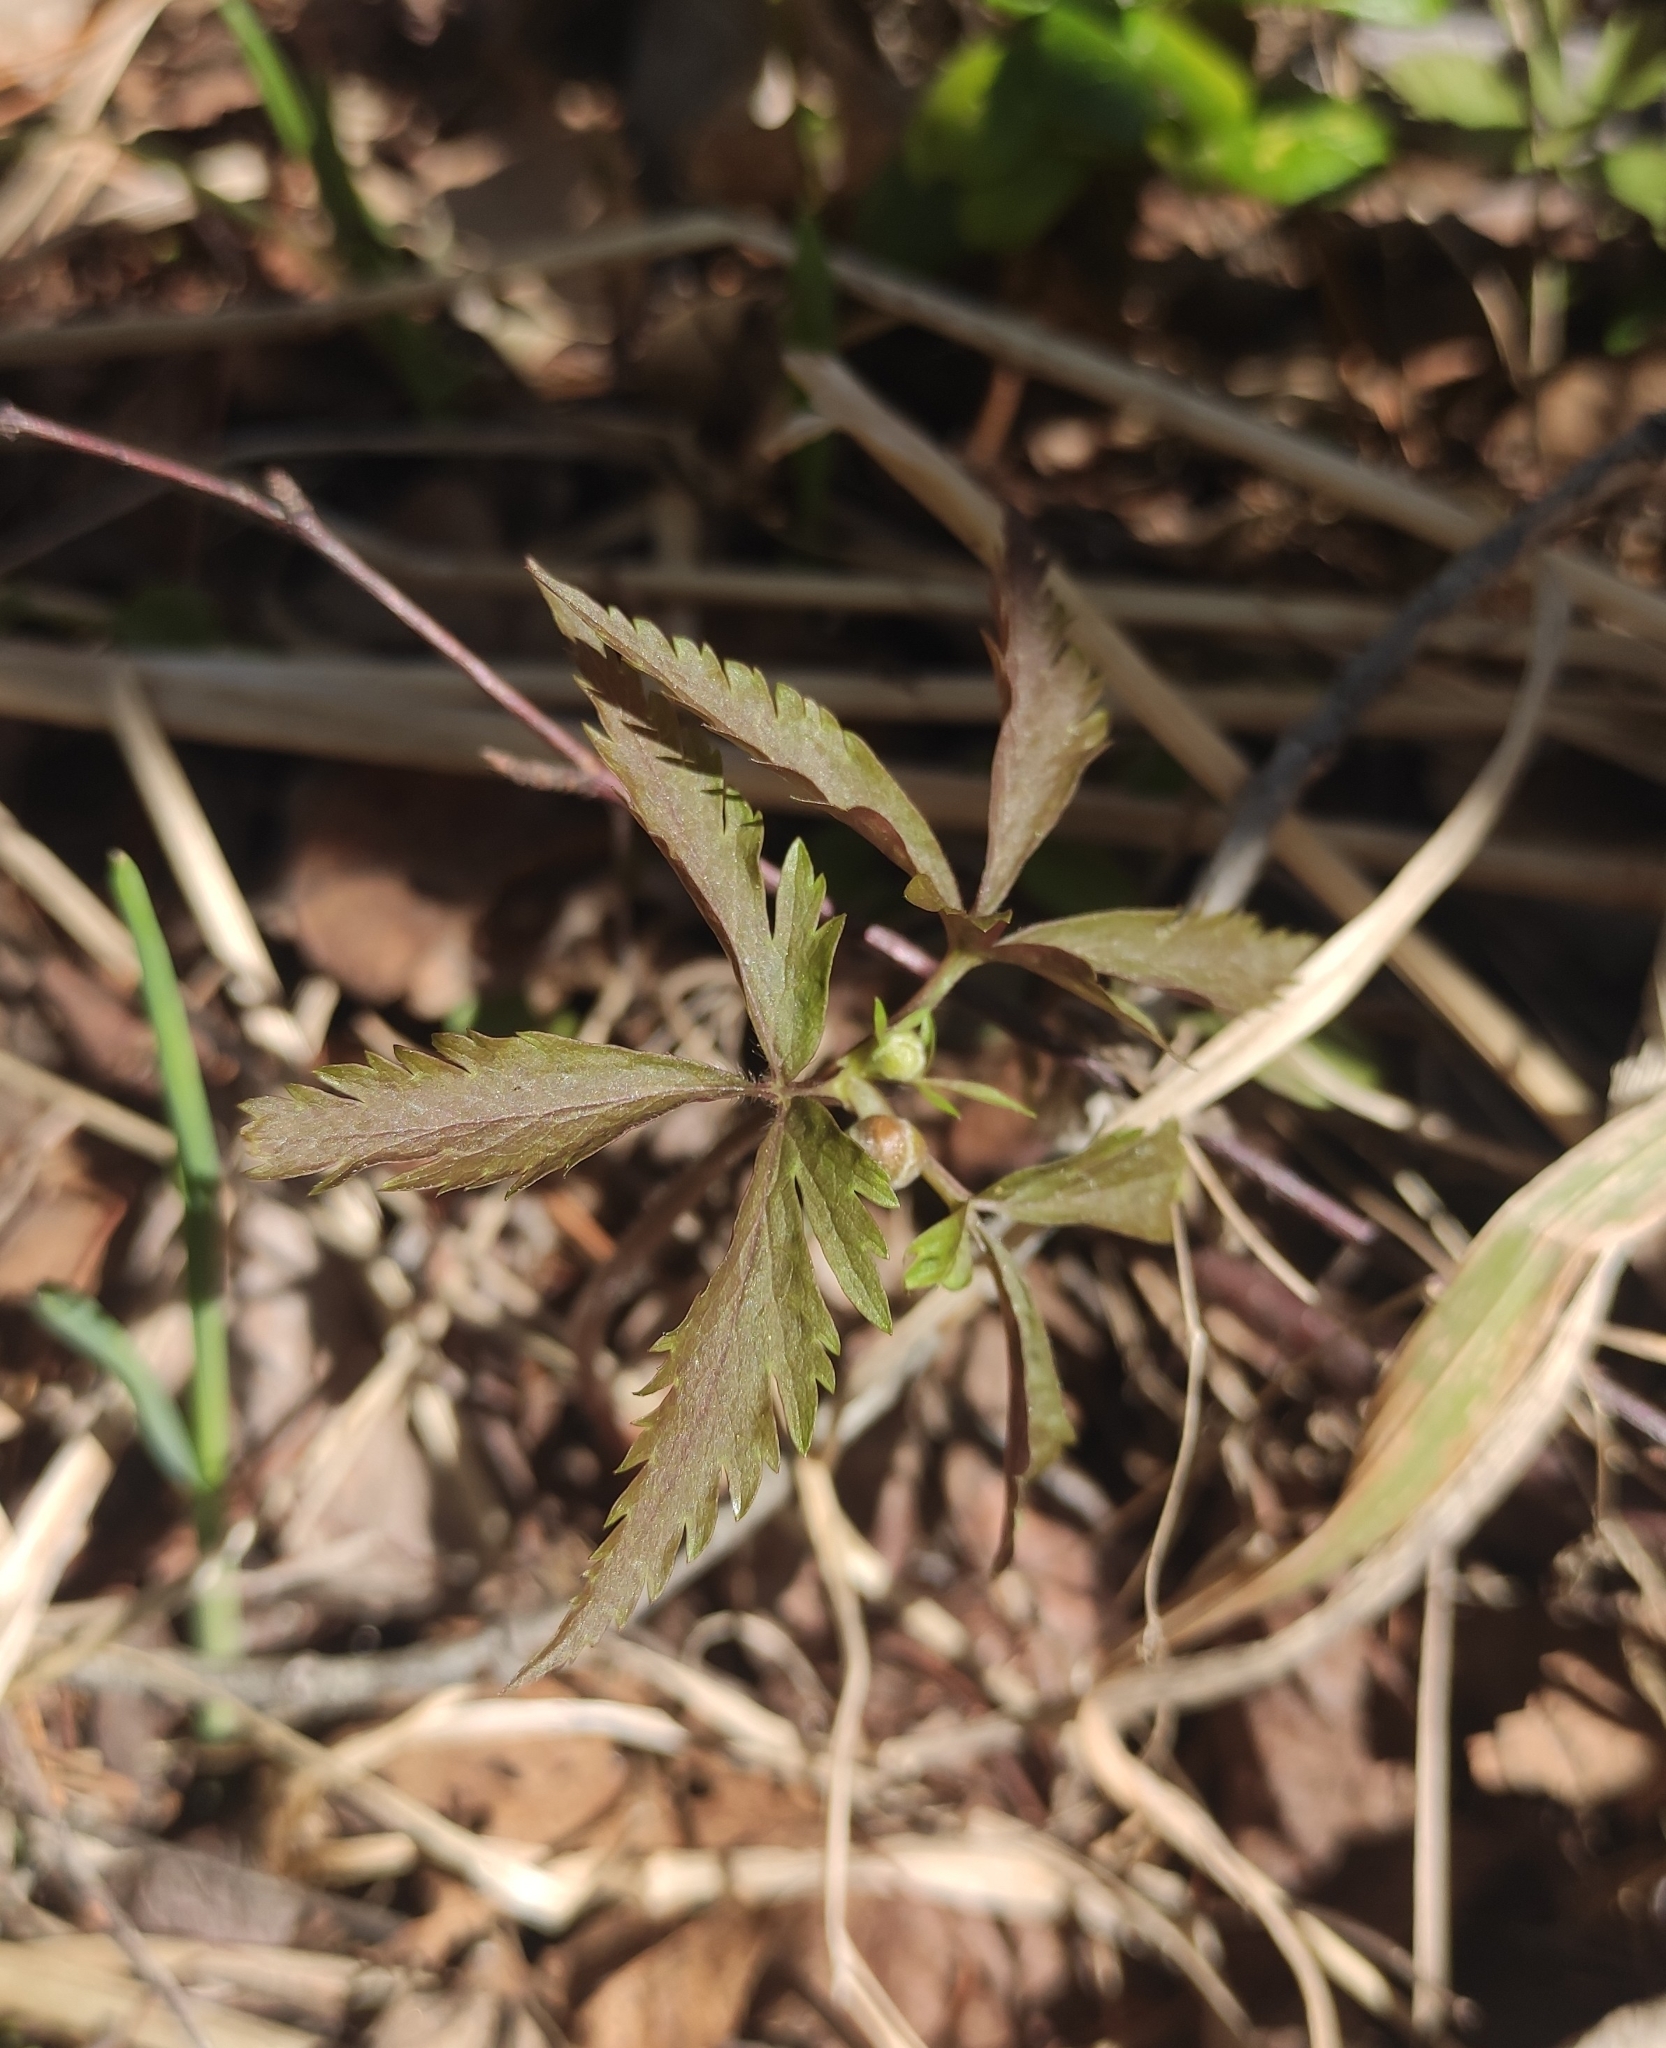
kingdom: Plantae
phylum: Tracheophyta
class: Magnoliopsida
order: Ranunculales
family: Ranunculaceae
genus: Anemone
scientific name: Anemone reflexa
